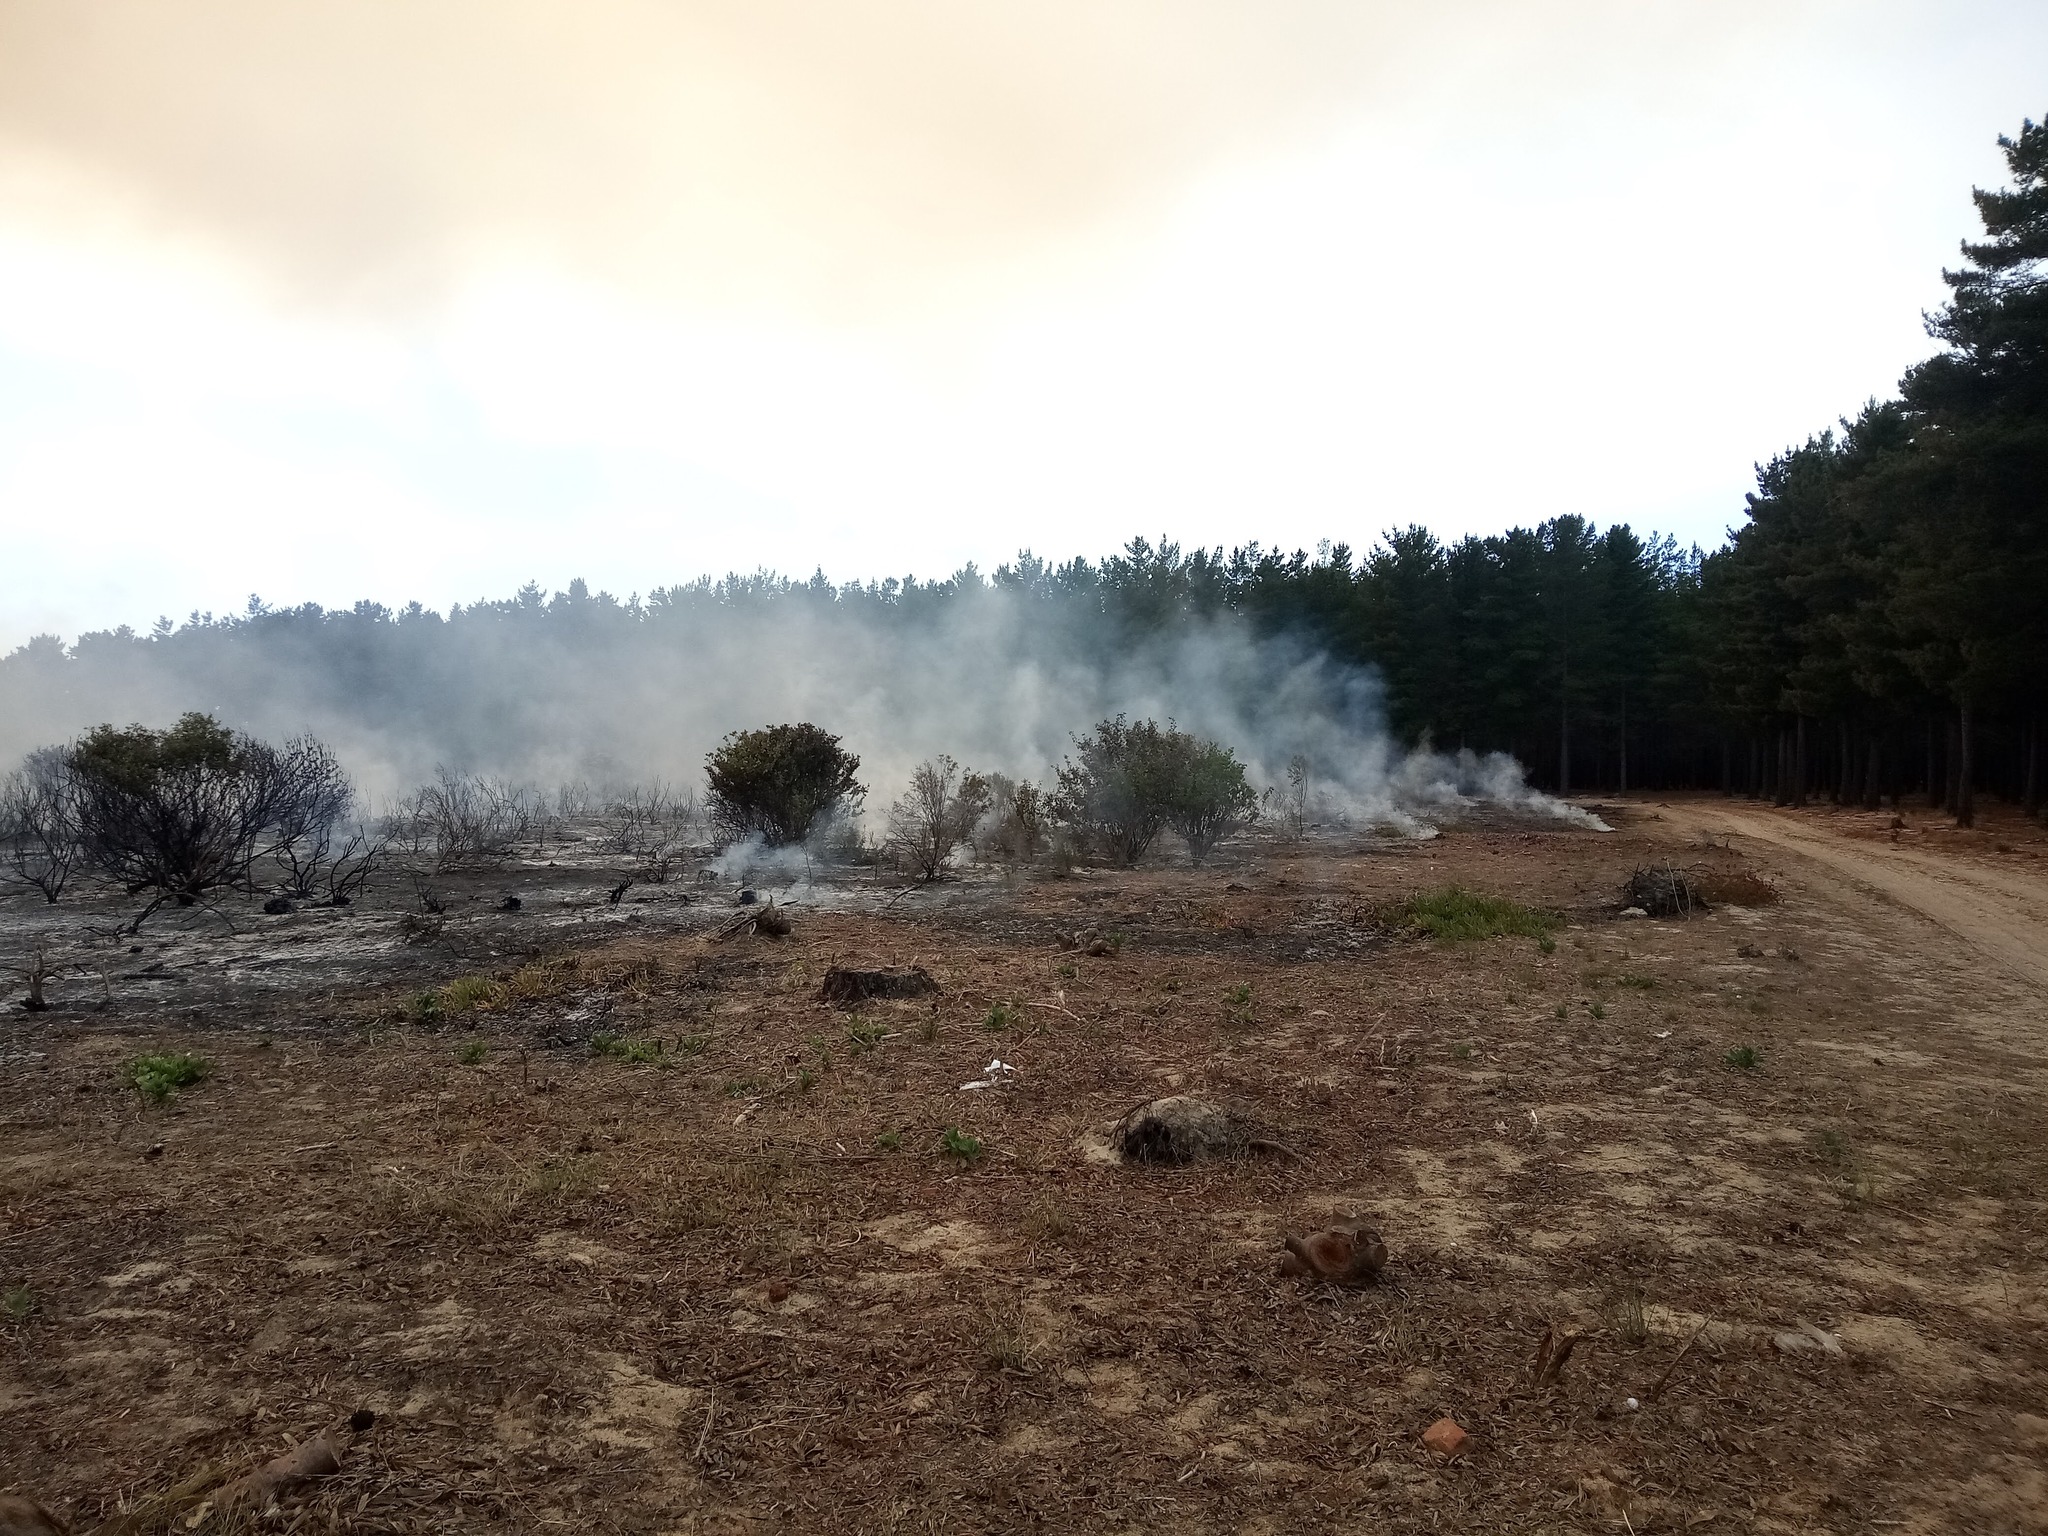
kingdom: Plantae
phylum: Tracheophyta
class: Magnoliopsida
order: Asterales
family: Asteraceae
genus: Osteospermum
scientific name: Osteospermum moniliferum
